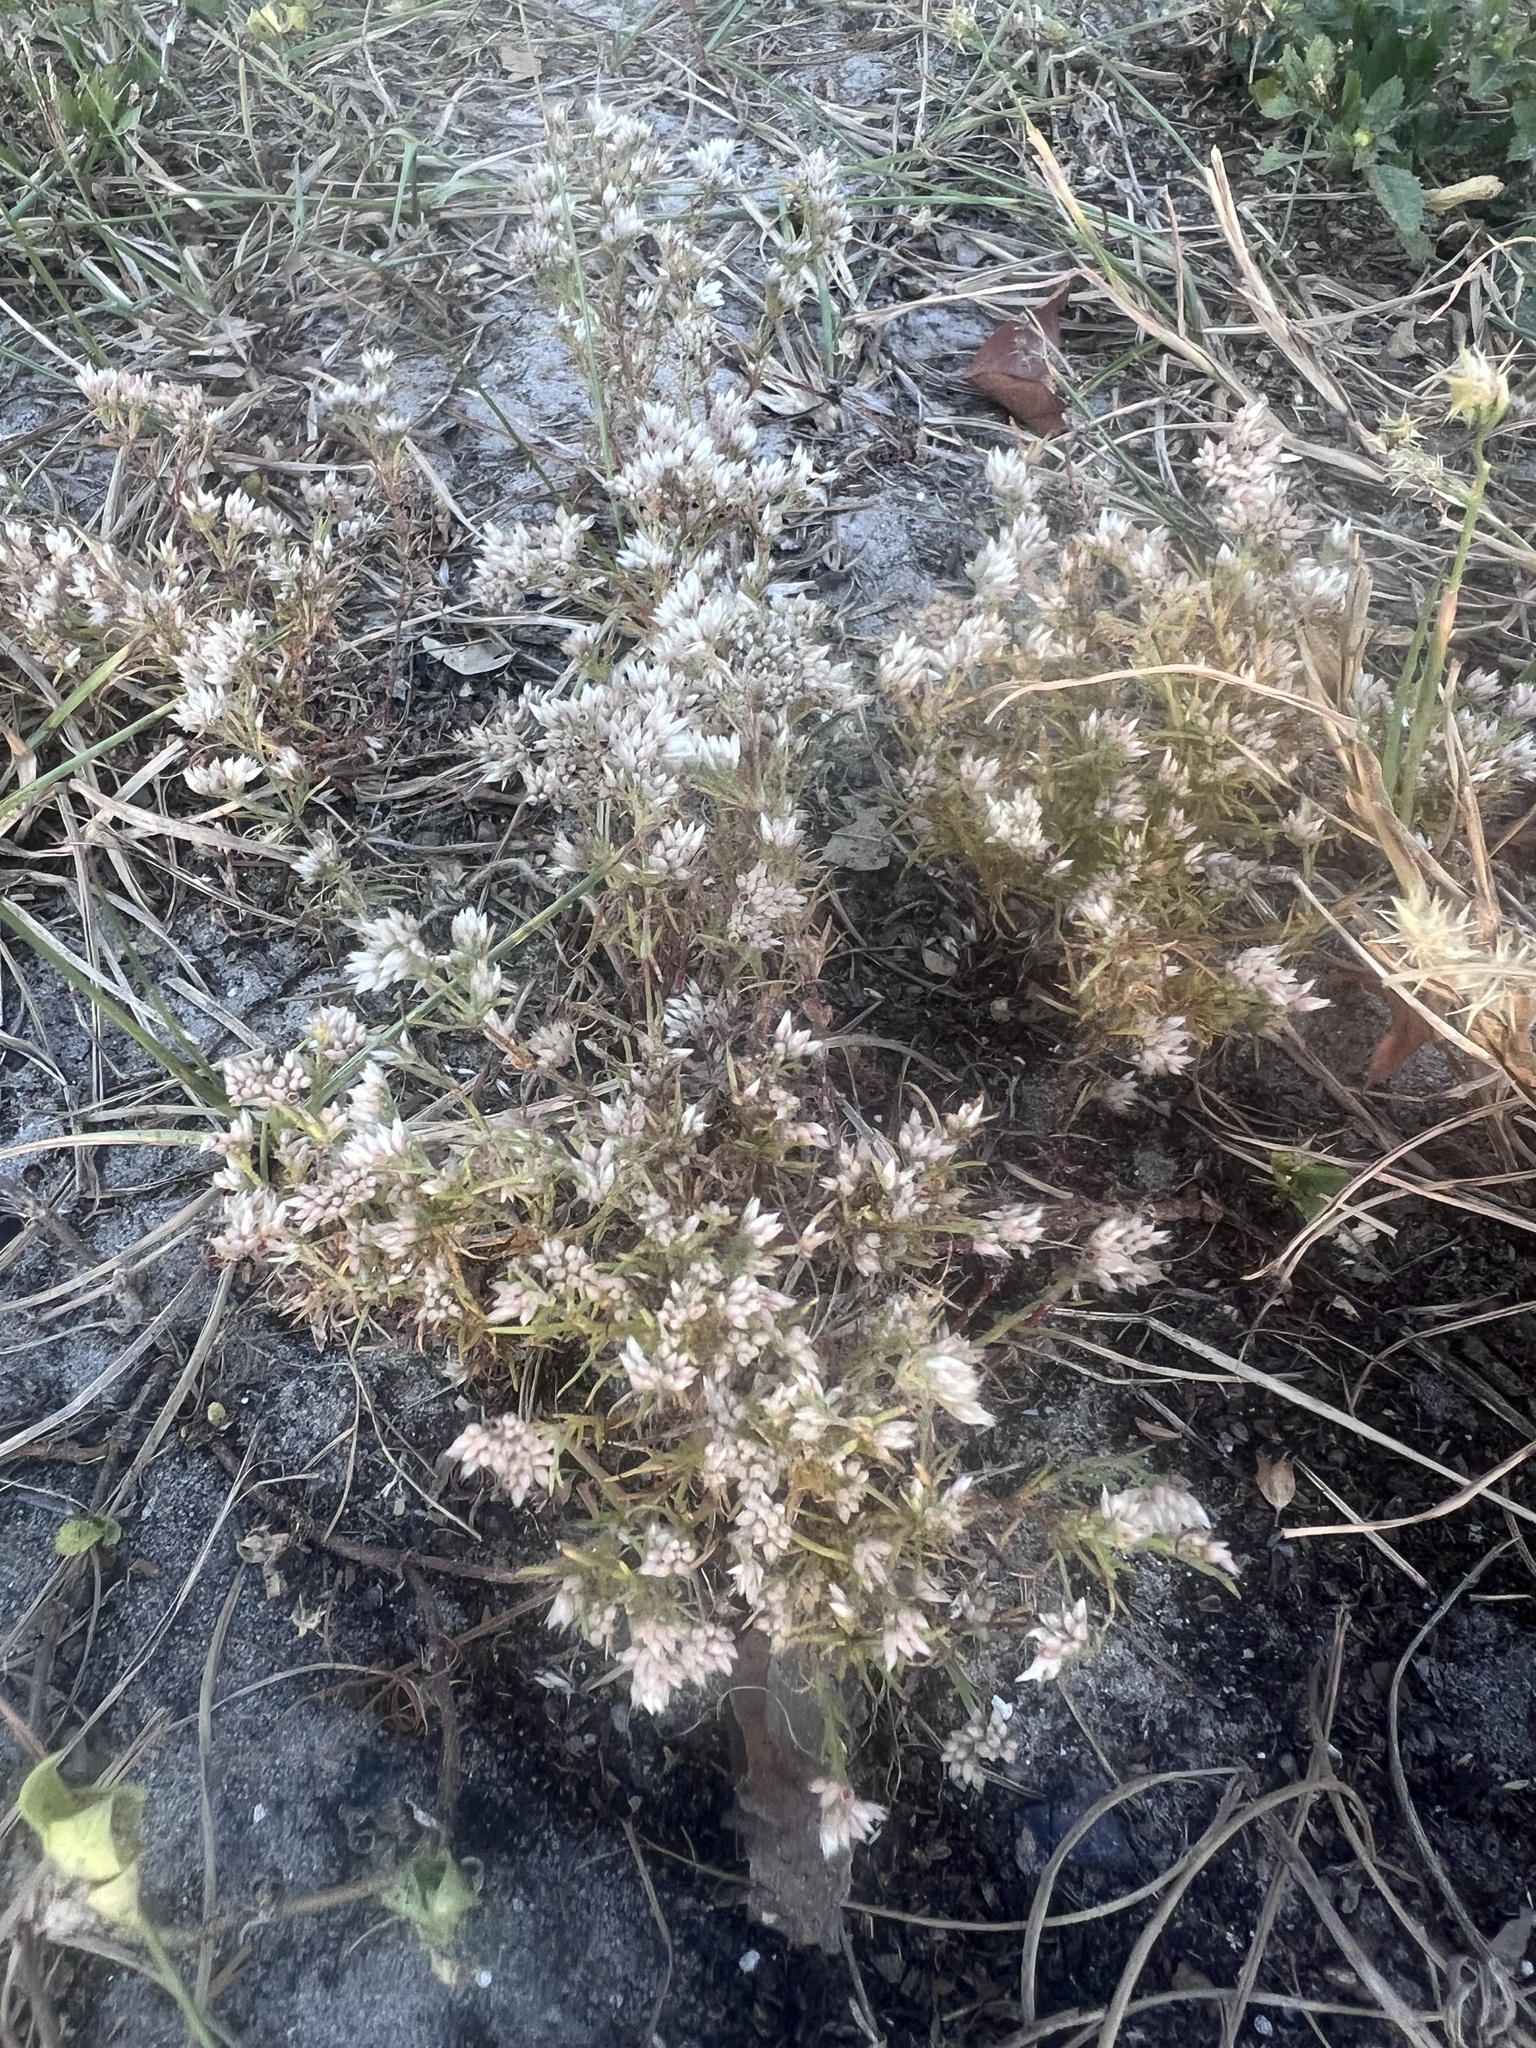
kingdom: Plantae
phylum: Tracheophyta
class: Magnoliopsida
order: Caryophyllales
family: Caryophyllaceae
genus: Polycarpaea
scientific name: Polycarpaea corymbosa
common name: Oldman's cap
